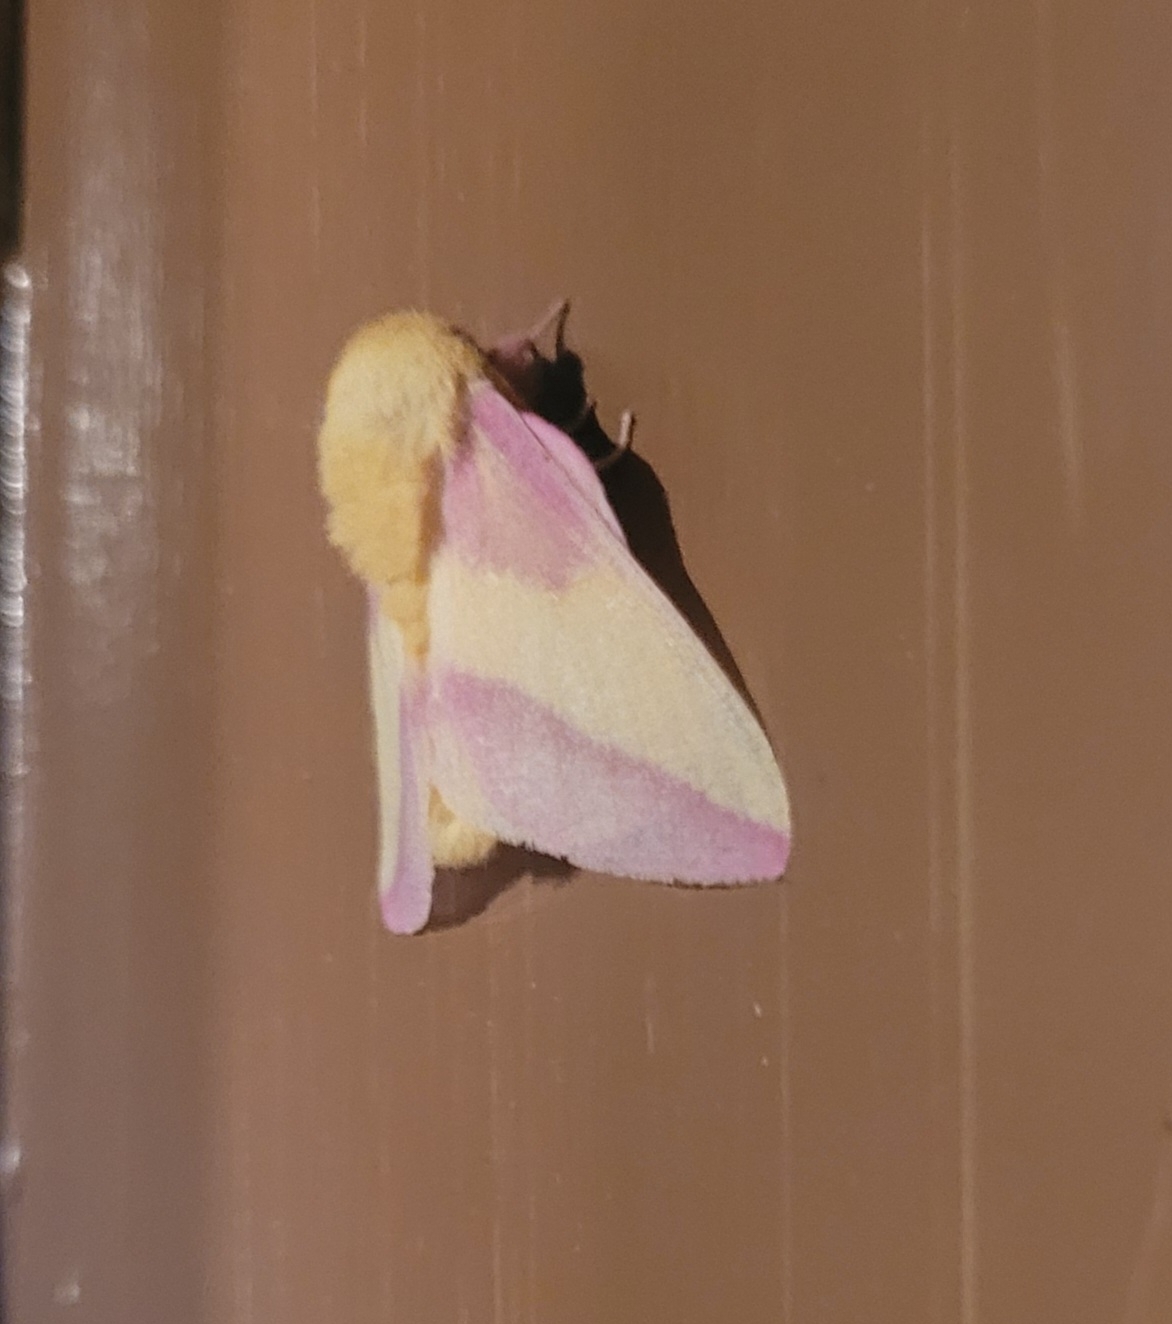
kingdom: Animalia
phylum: Arthropoda
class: Insecta
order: Lepidoptera
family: Saturniidae
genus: Dryocampa
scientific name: Dryocampa rubicunda
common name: Rosy maple moth
